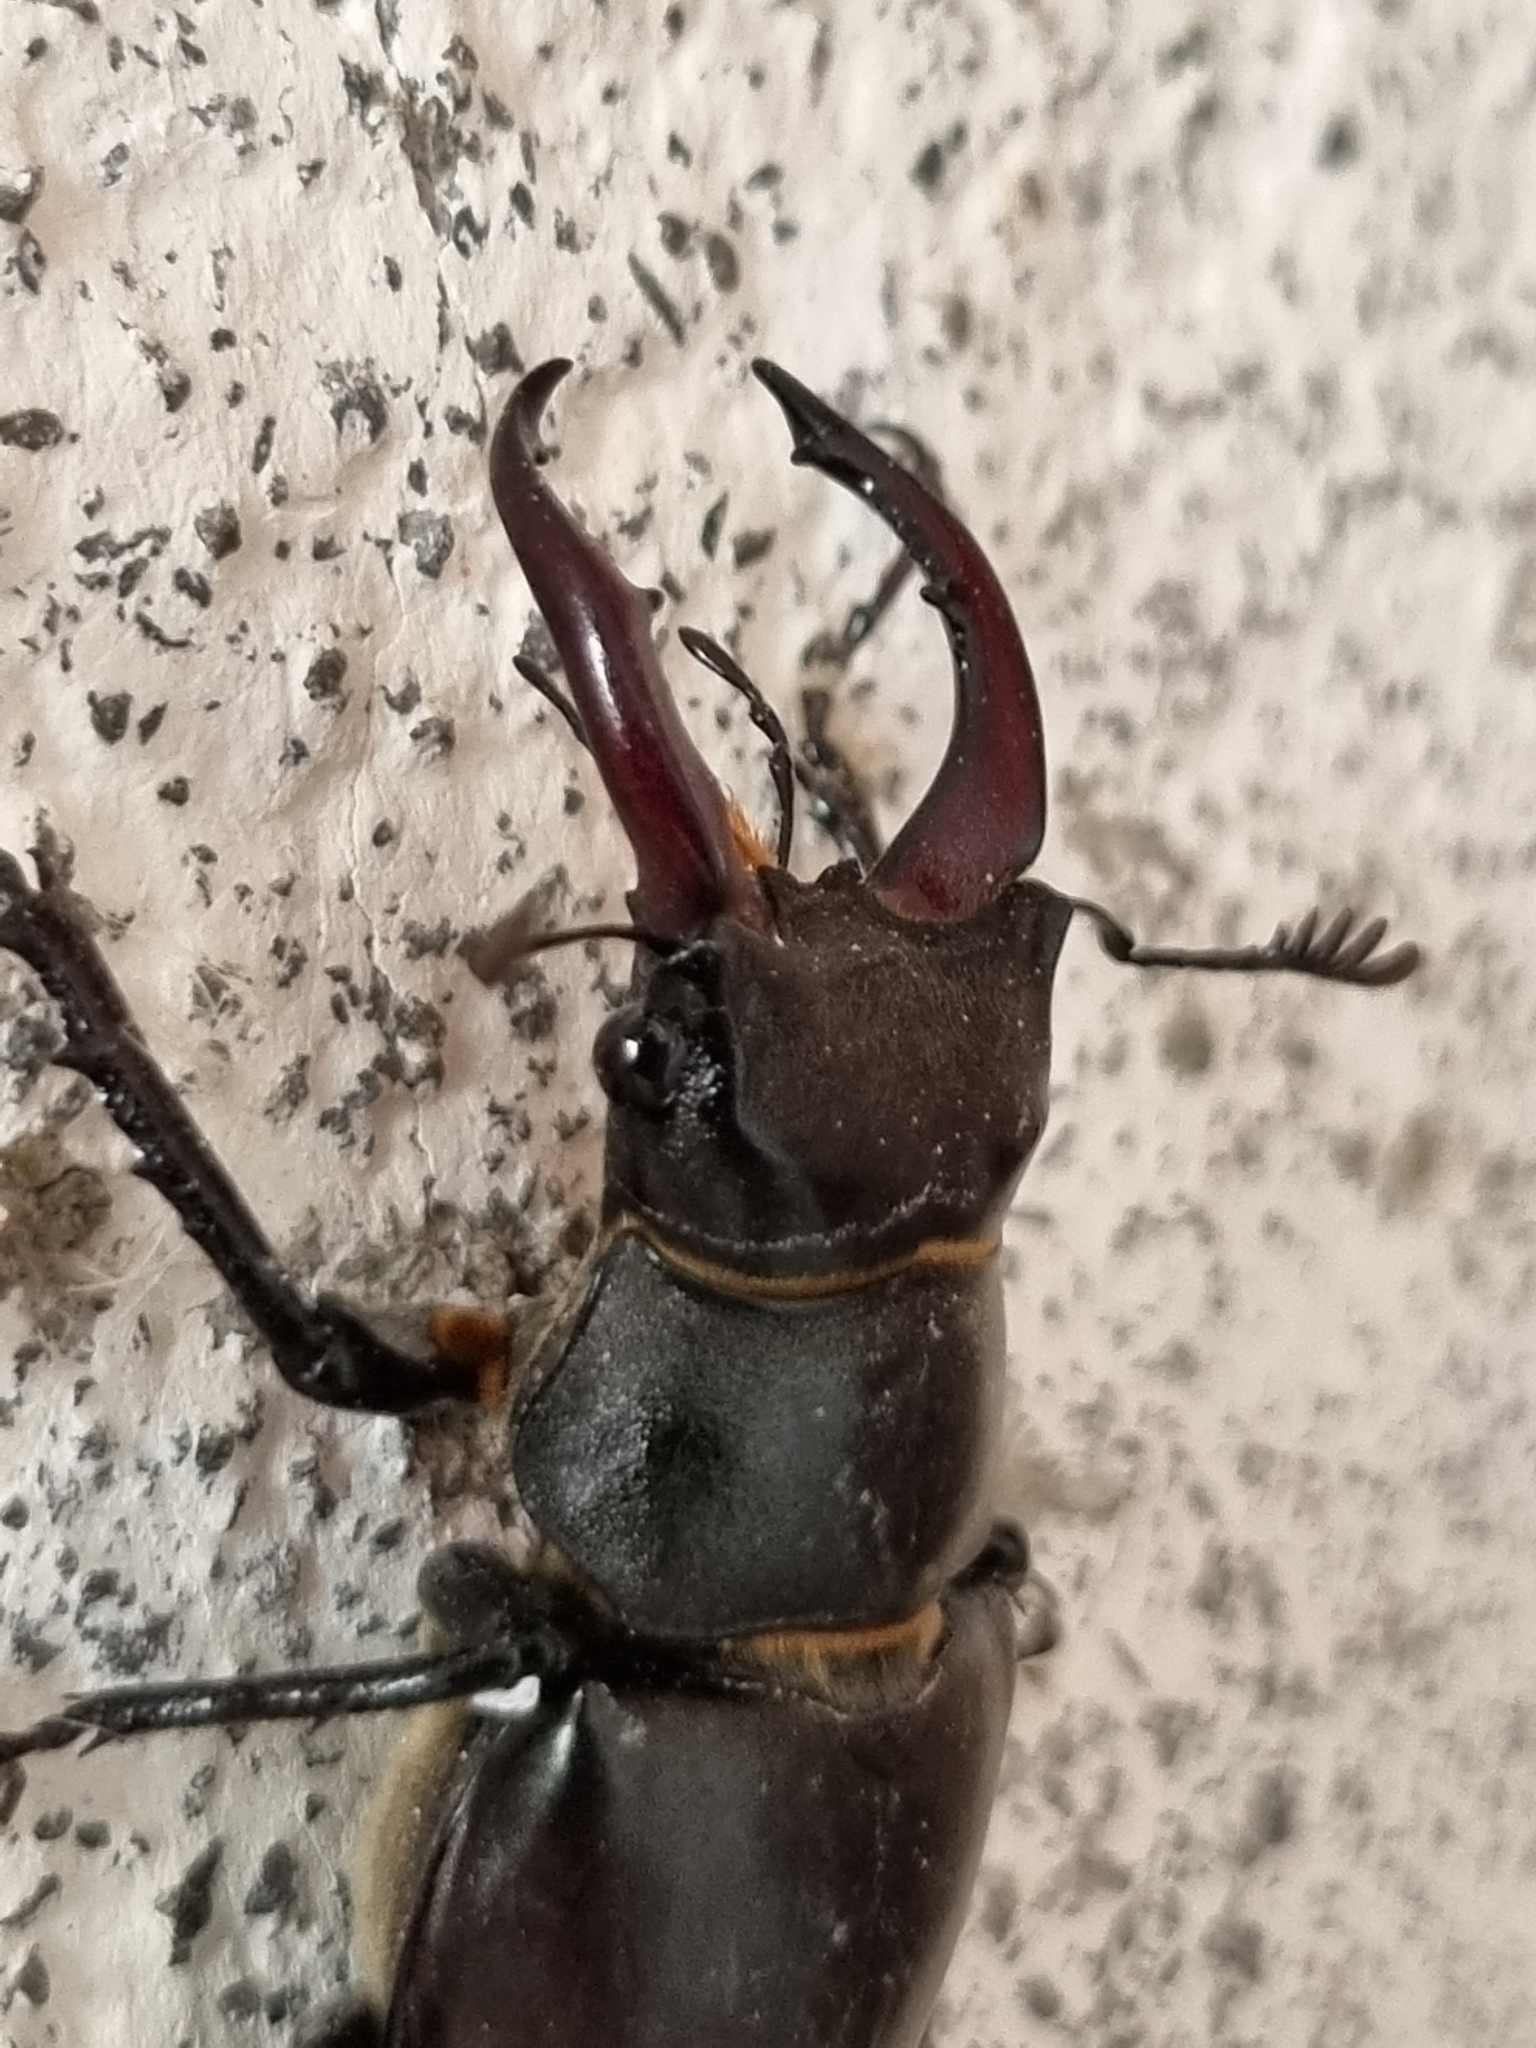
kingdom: Animalia
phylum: Arthropoda
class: Insecta
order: Coleoptera
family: Lucanidae
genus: Lucanus
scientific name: Lucanus cervus
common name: Stag beetle
